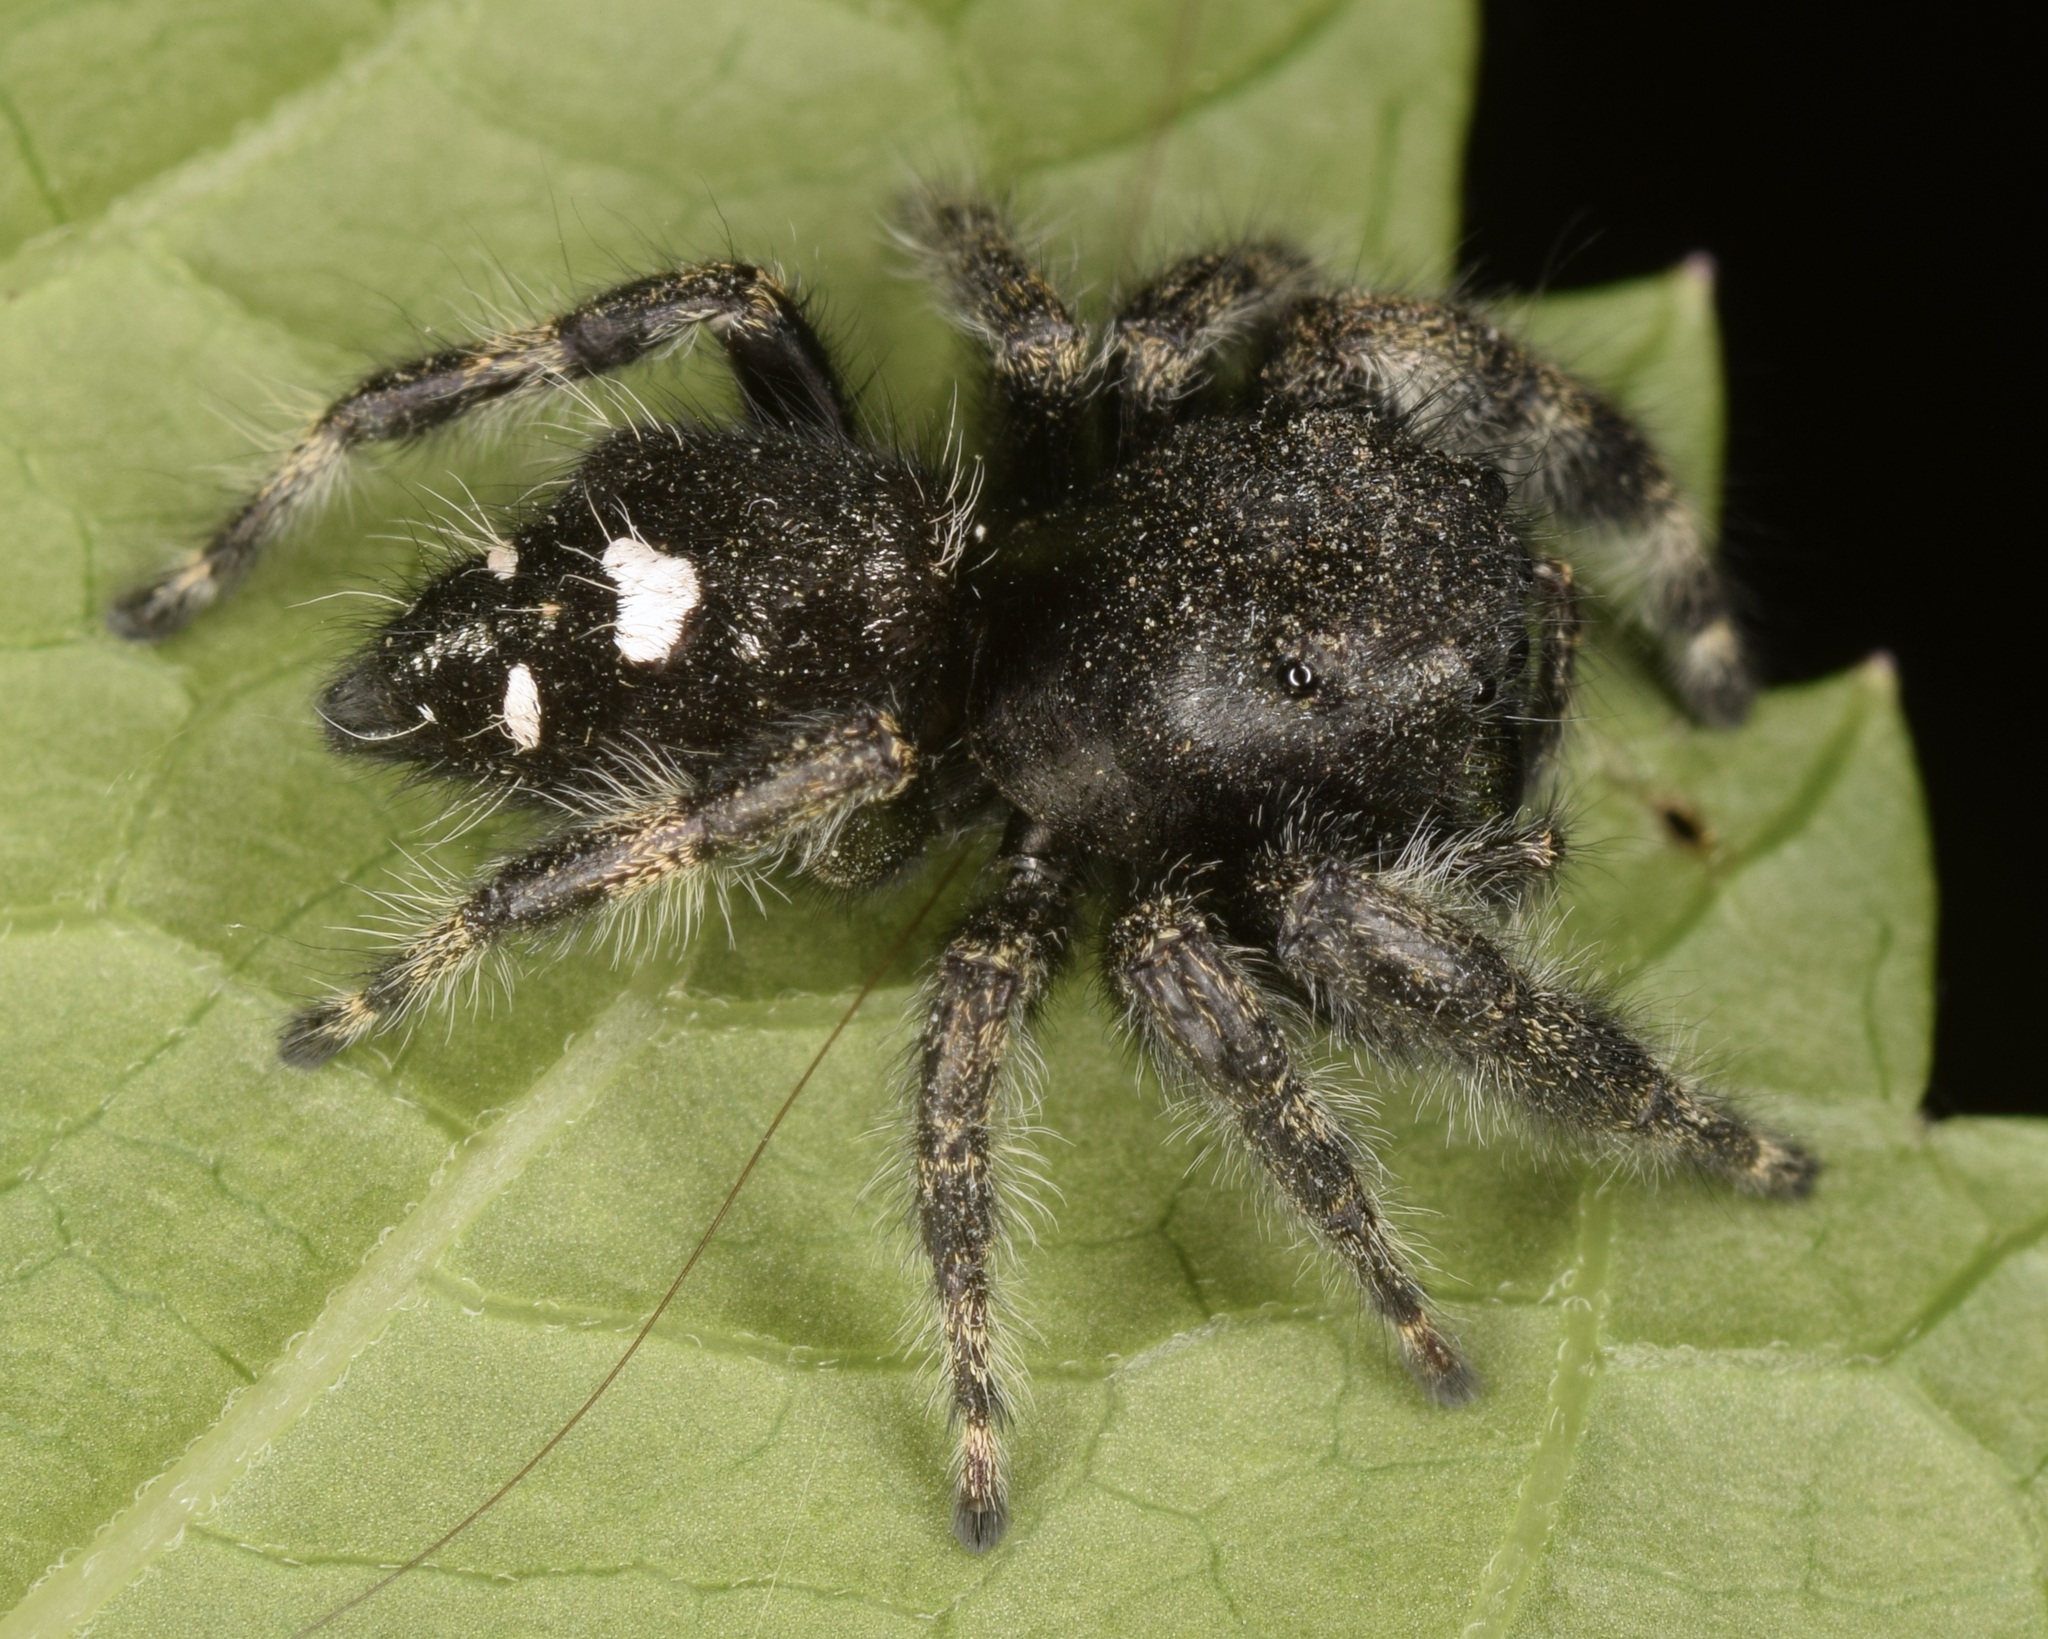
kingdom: Animalia
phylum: Arthropoda
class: Arachnida
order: Araneae
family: Salticidae
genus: Phidippus
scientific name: Phidippus audax
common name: Bold jumper
